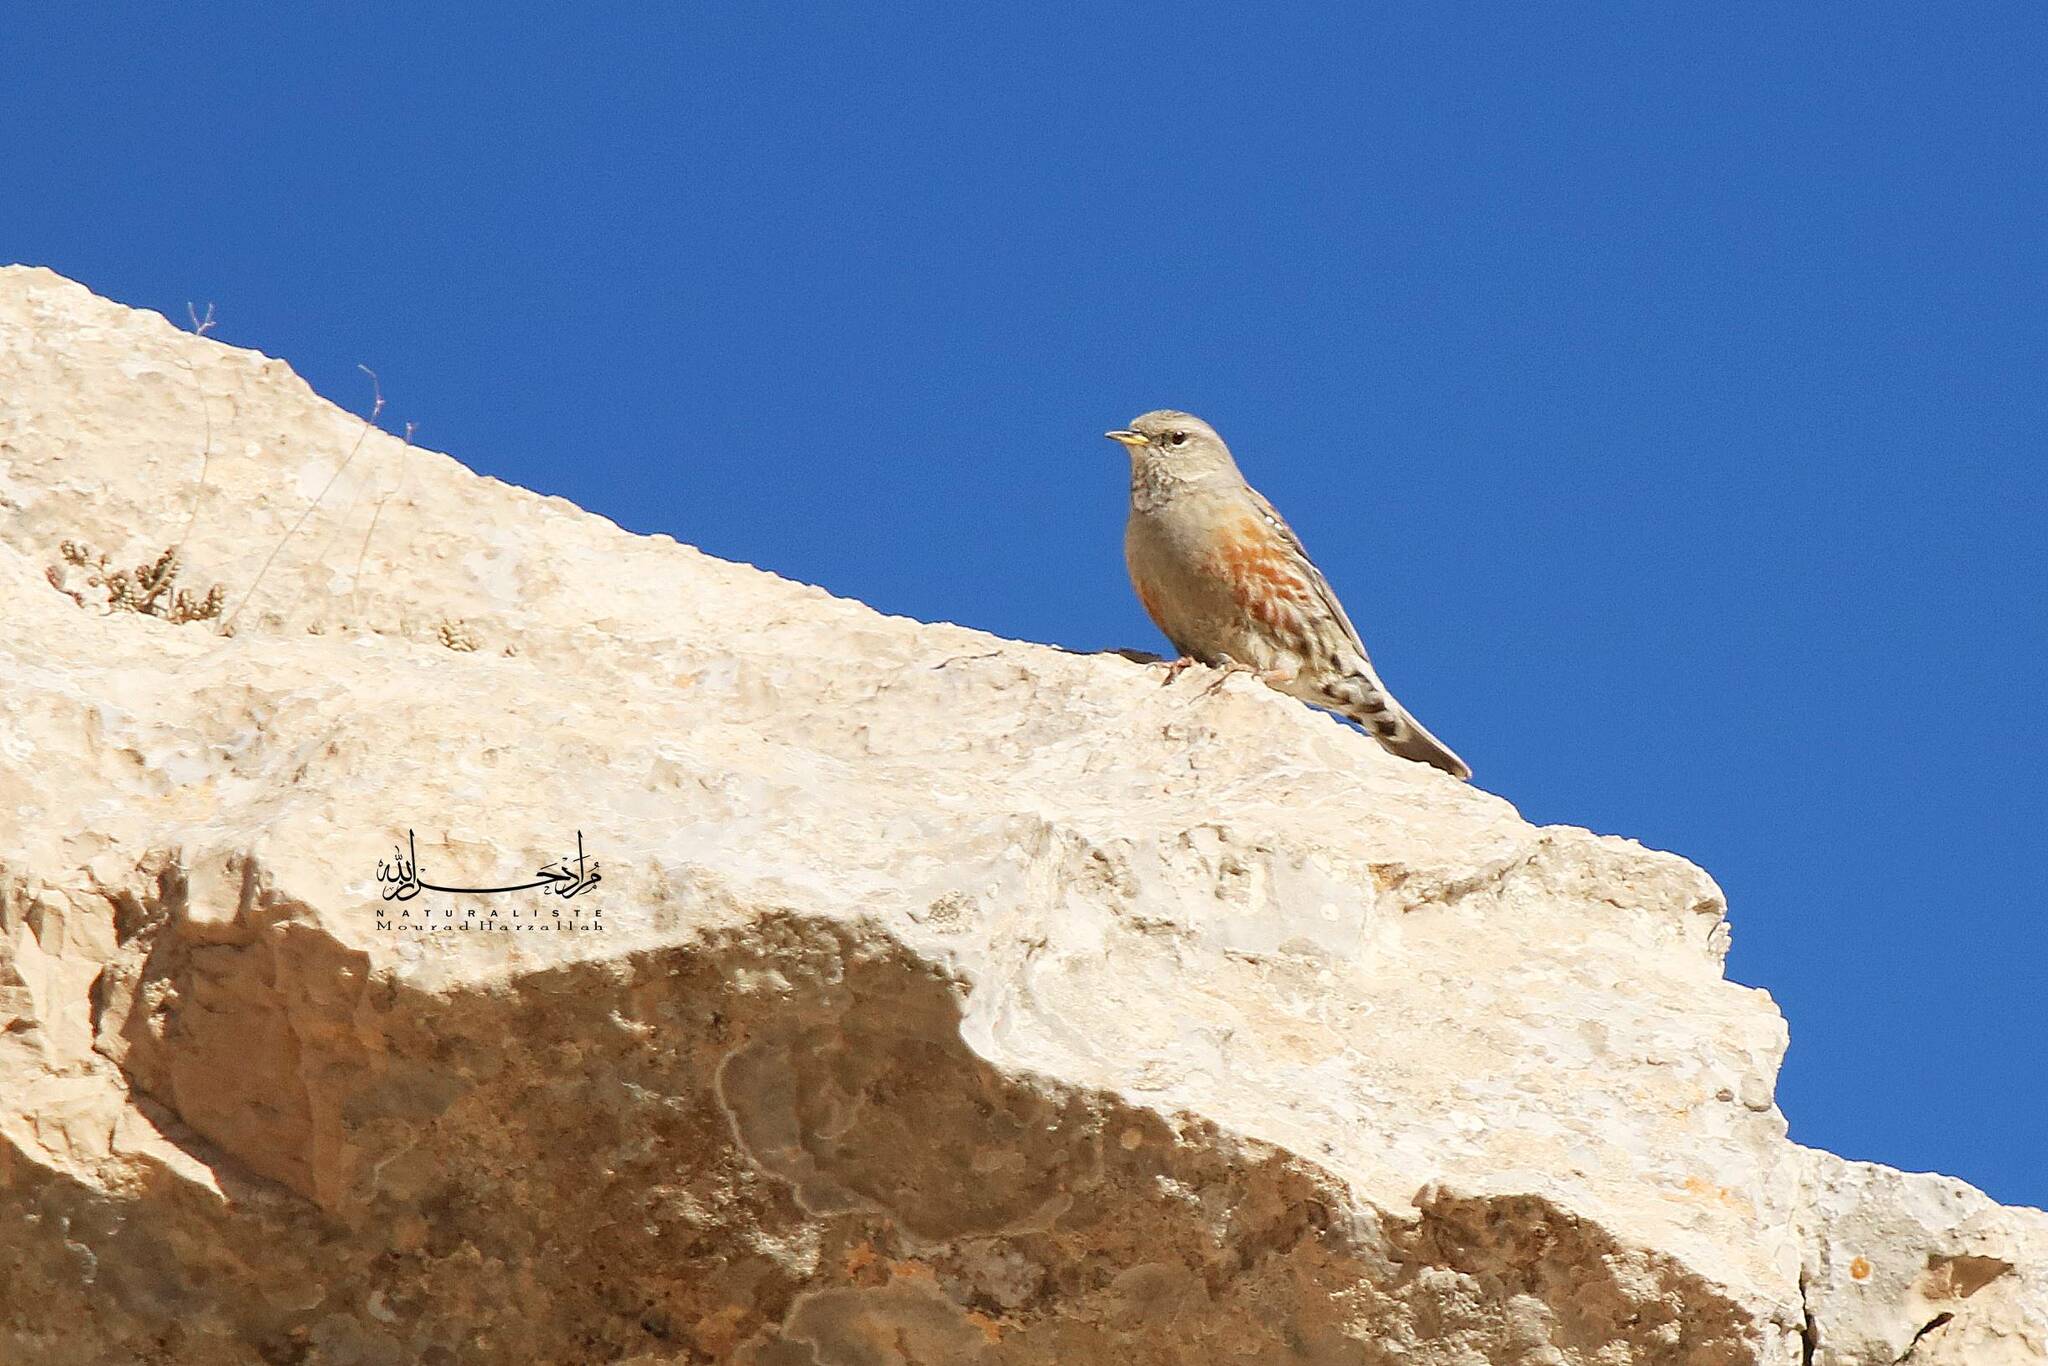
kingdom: Animalia
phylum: Chordata
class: Aves
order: Passeriformes
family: Prunellidae
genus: Prunella
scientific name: Prunella collaris
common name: Alpine accentor
